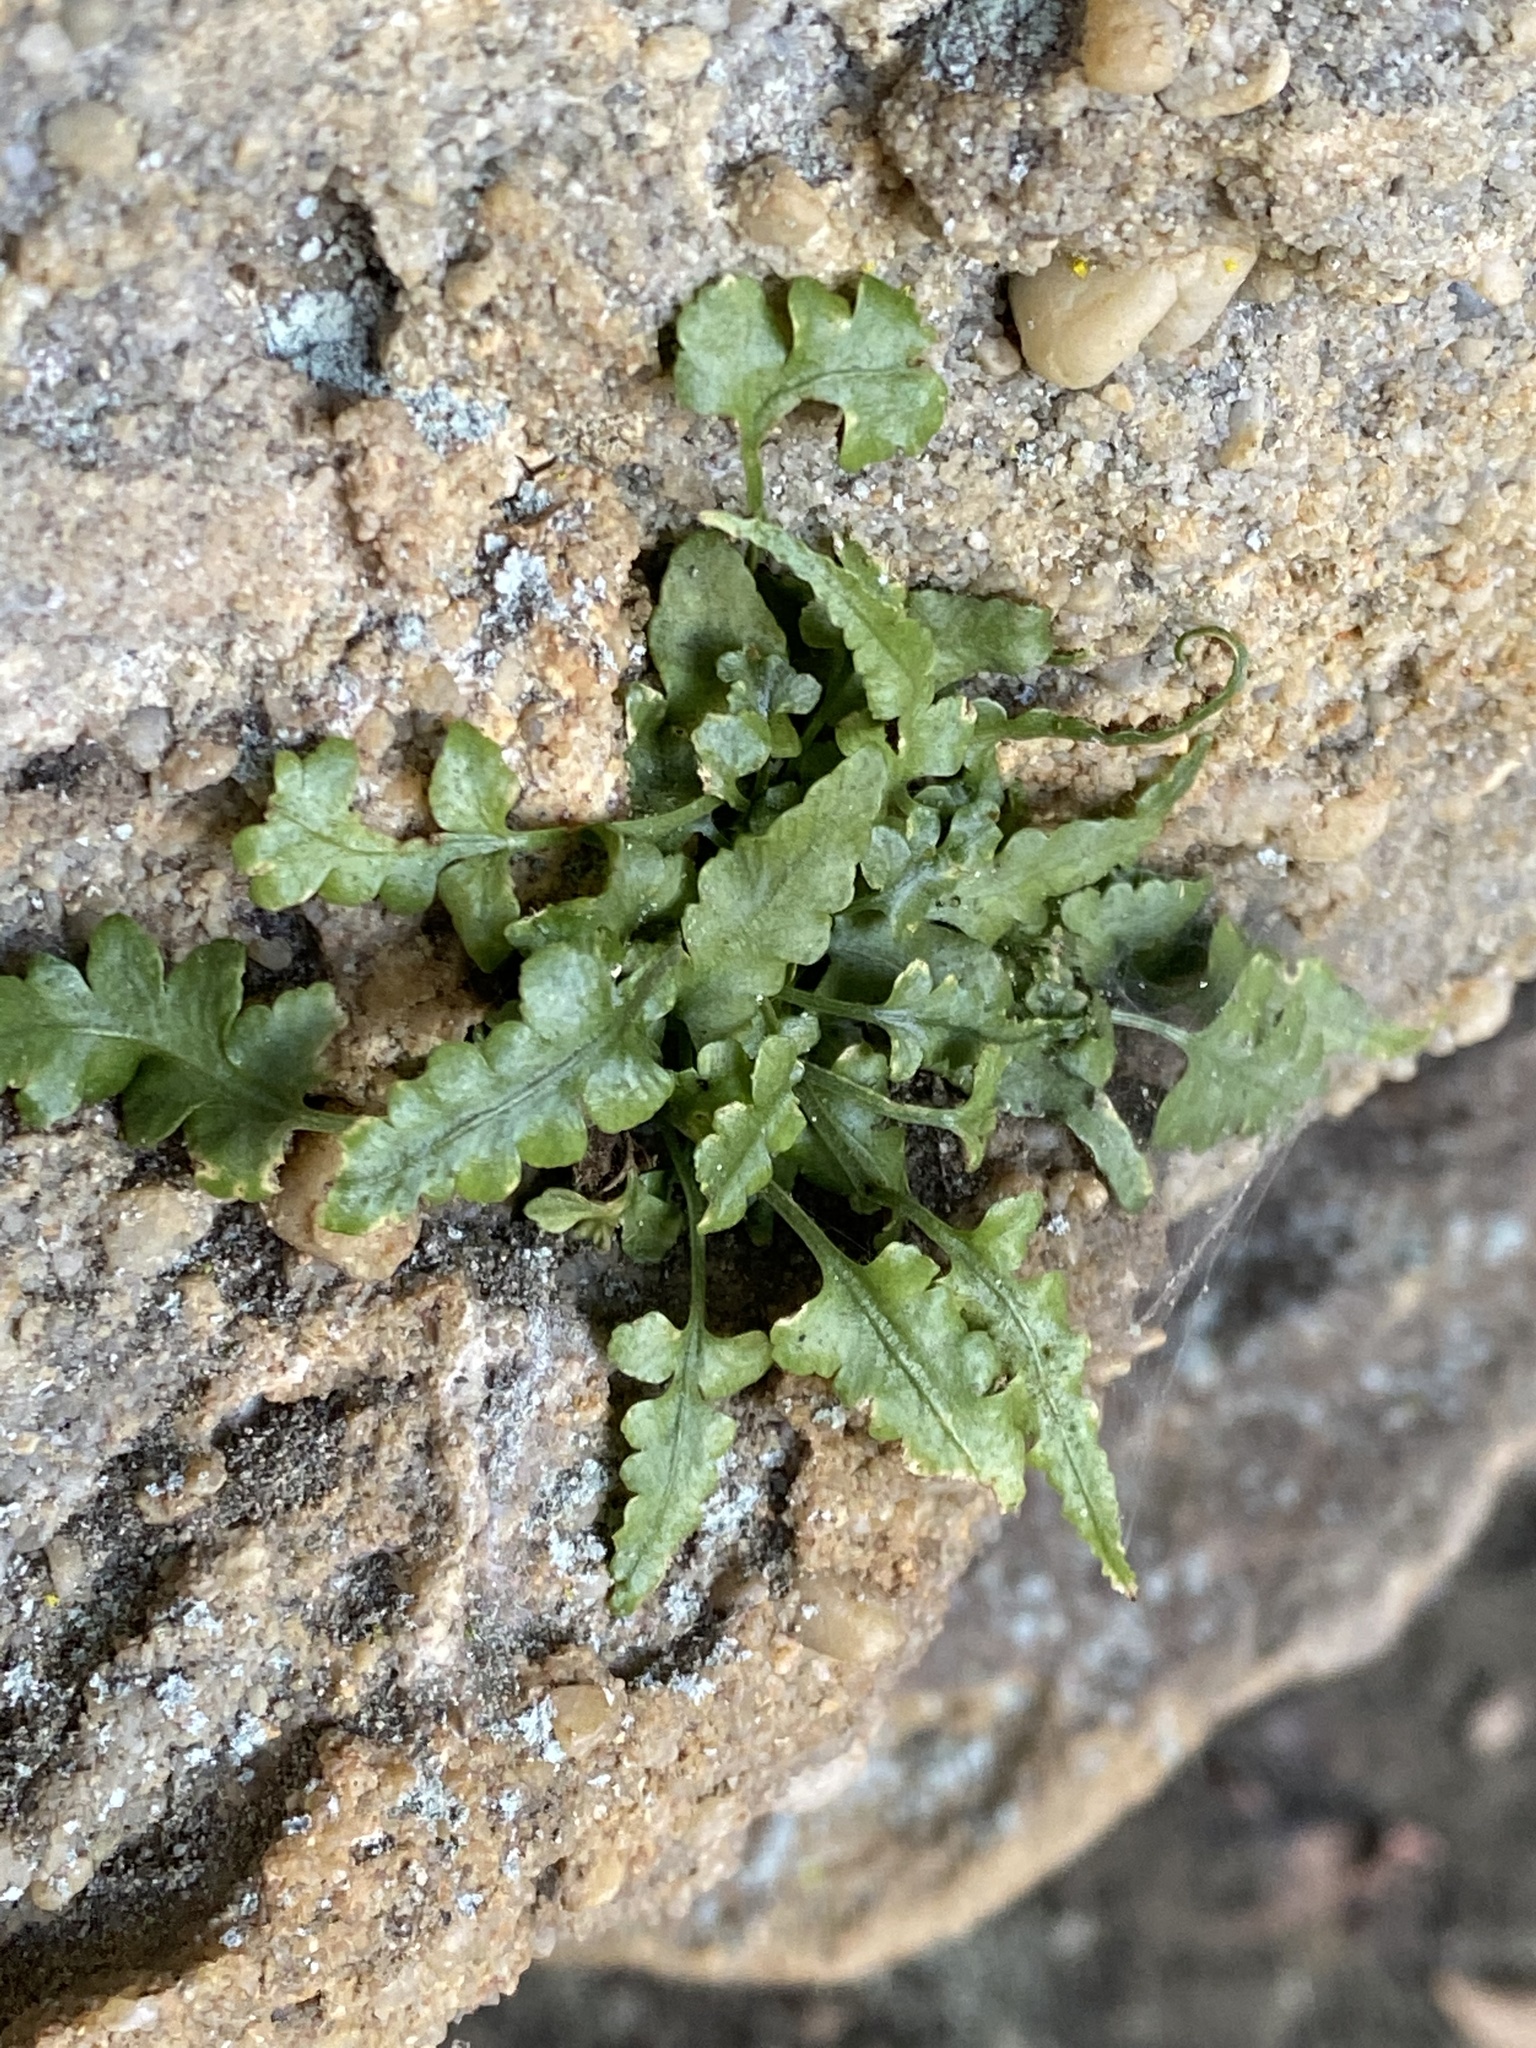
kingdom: Plantae
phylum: Tracheophyta
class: Polypodiopsida
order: Polypodiales
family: Aspleniaceae
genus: Asplenium
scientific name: Asplenium pinnatifidum
